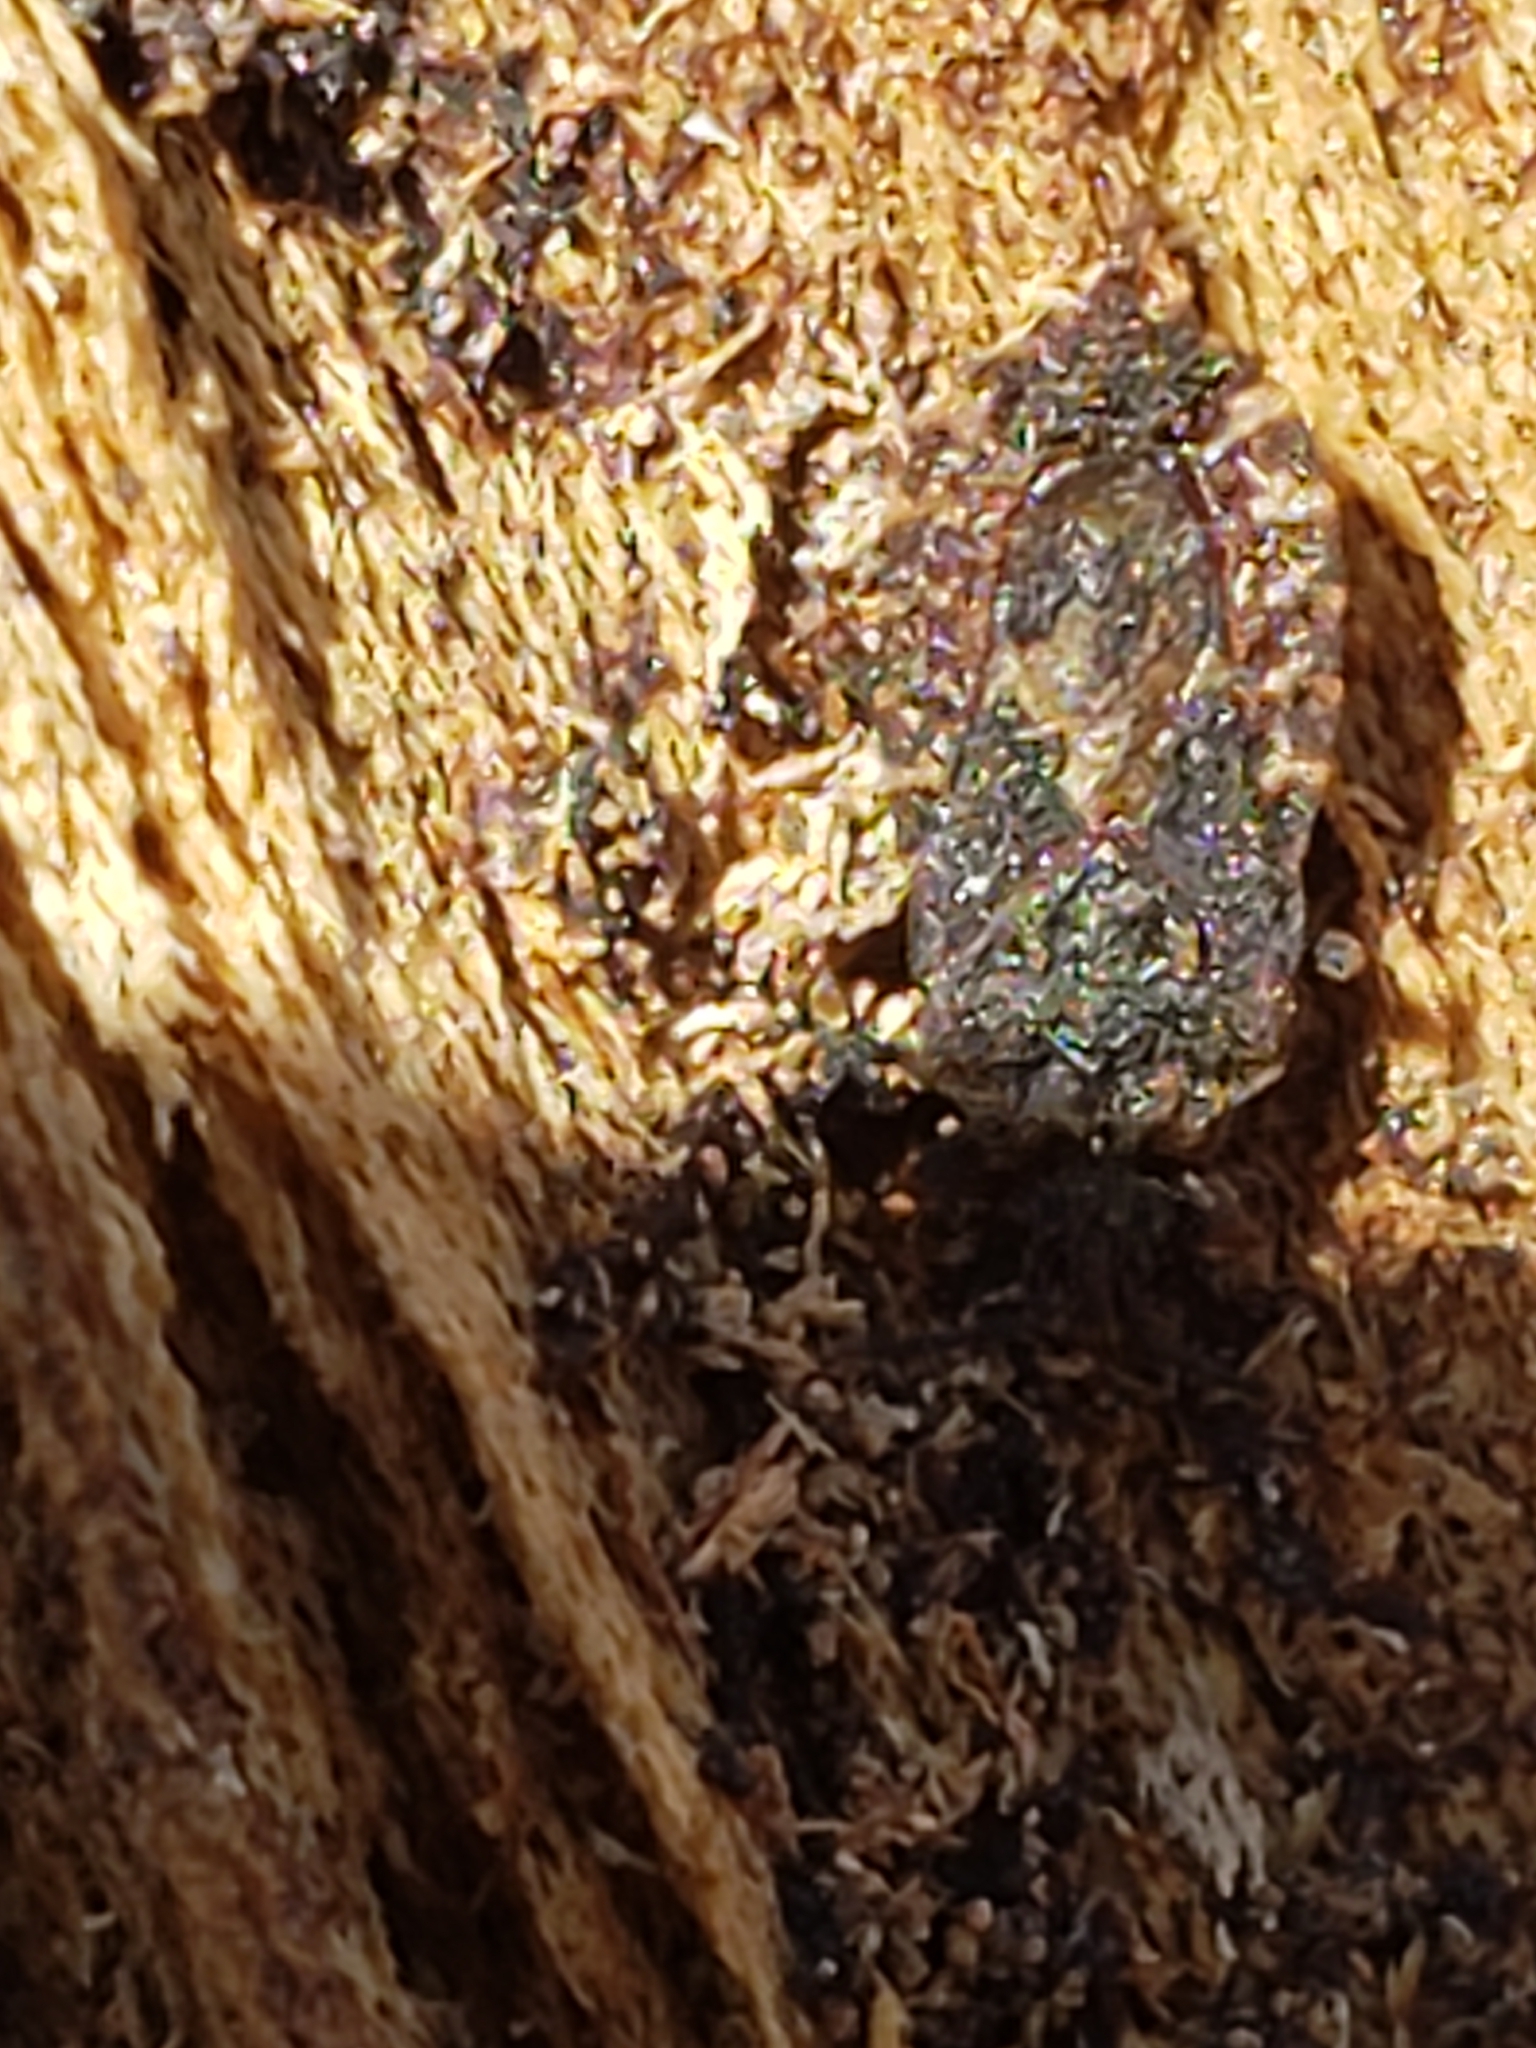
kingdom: Animalia
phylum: Arthropoda
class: Insecta
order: Hemiptera
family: Aradidae
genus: Mezira
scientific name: Mezira
